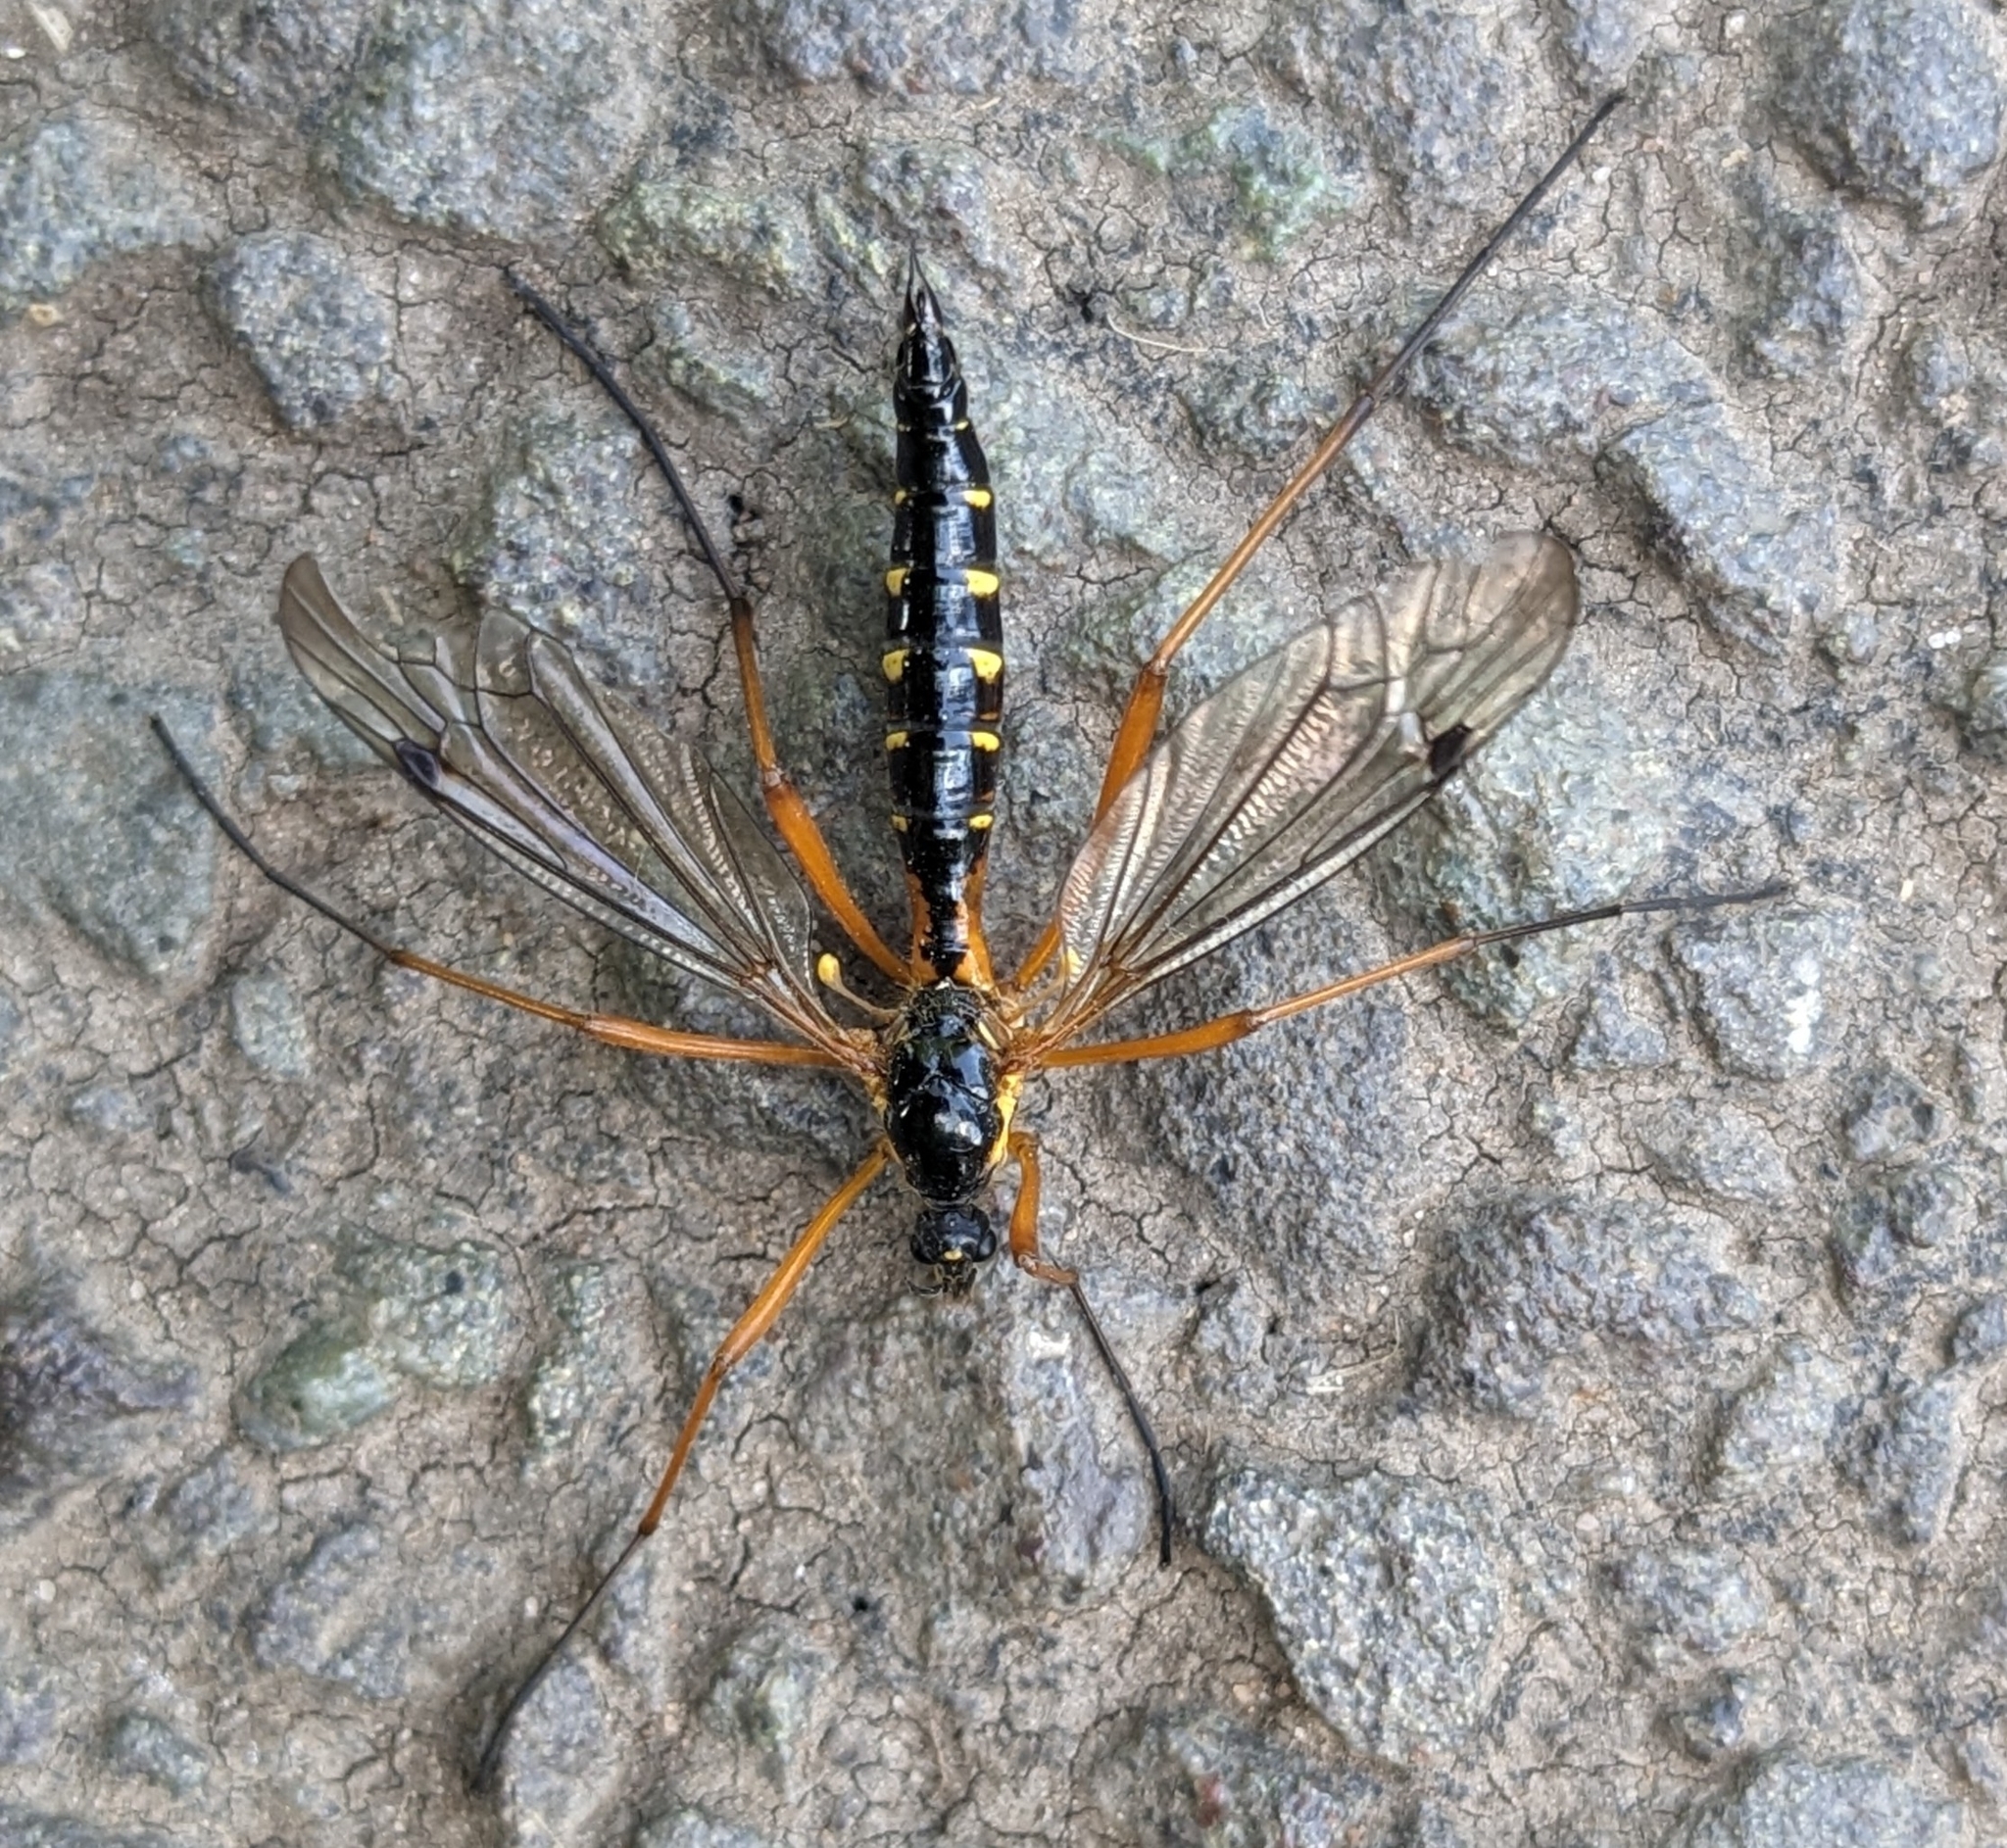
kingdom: Animalia
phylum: Arthropoda
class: Insecta
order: Diptera
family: Tipulidae
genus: Ctenophora
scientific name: Ctenophora pectinicornis
